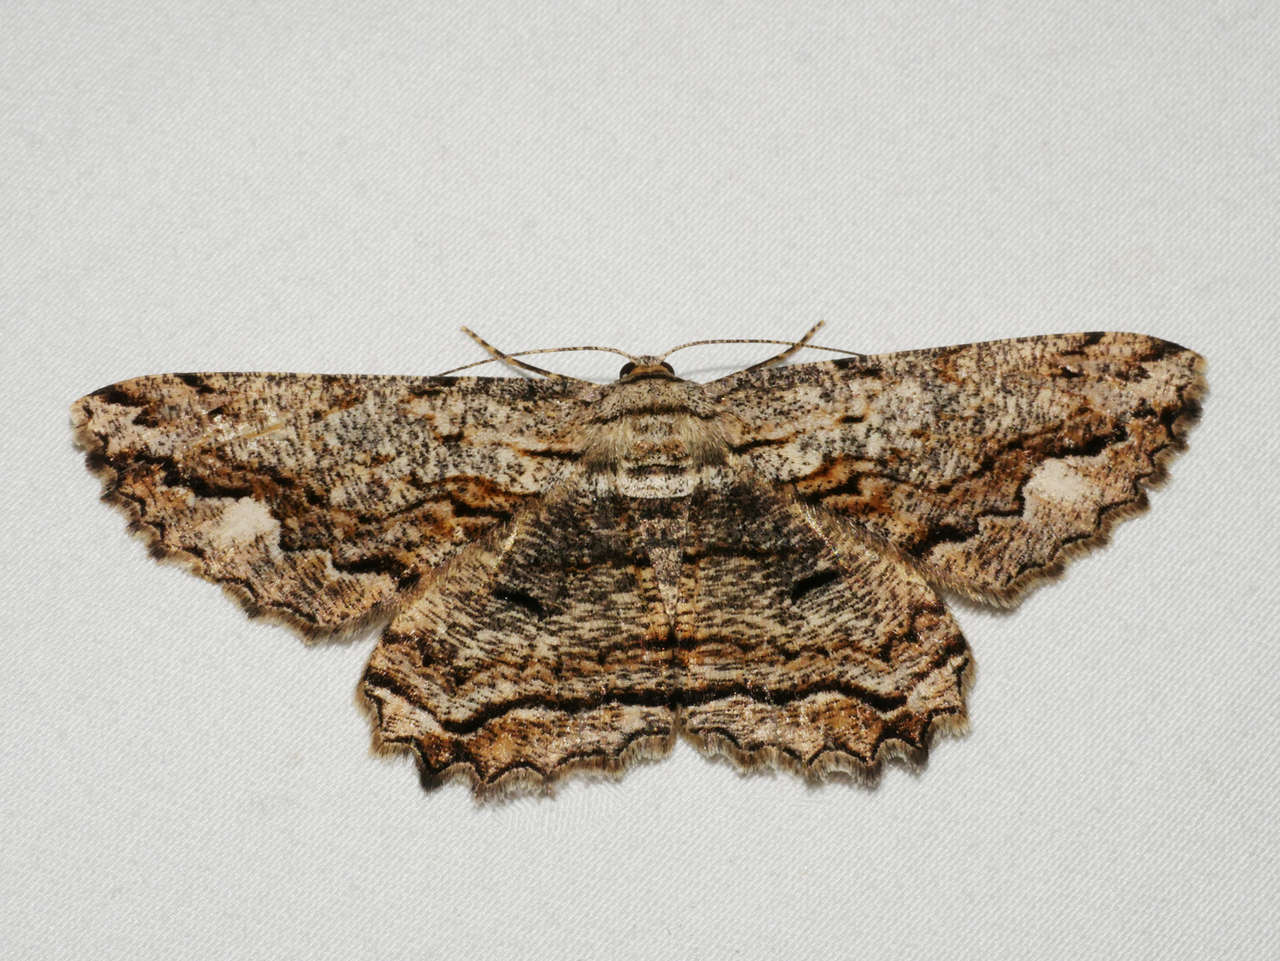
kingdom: Animalia
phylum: Arthropoda
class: Insecta
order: Lepidoptera
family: Geometridae
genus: Scioglyptis
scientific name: Scioglyptis lyciaria
